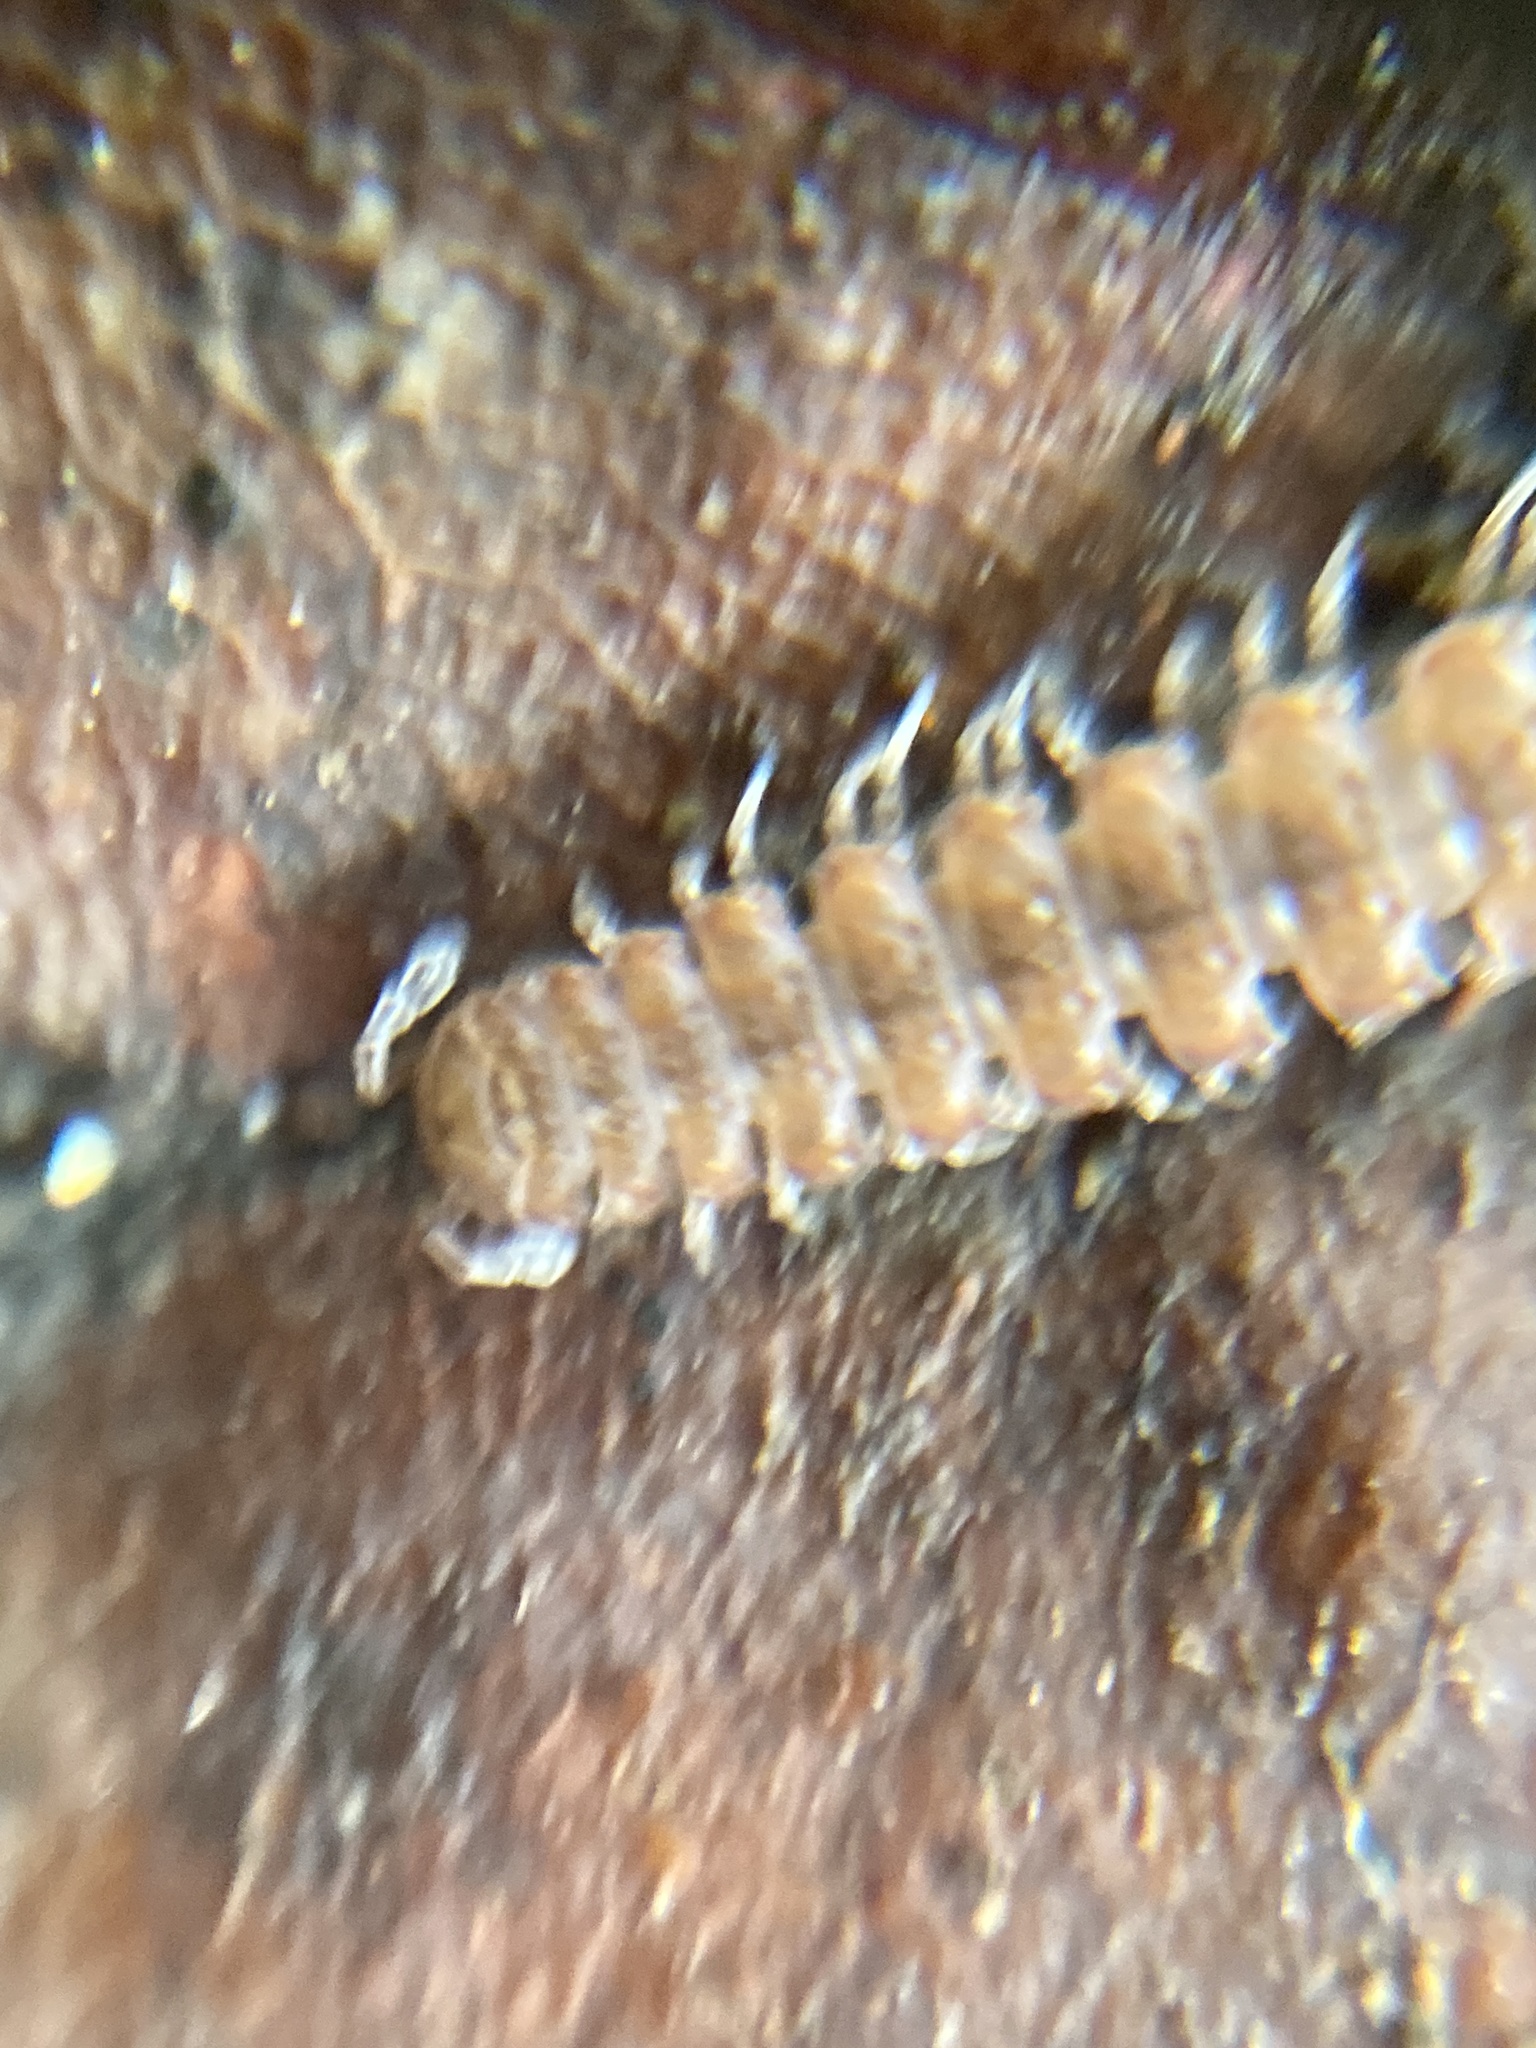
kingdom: Animalia
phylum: Arthropoda
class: Diplopoda
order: Polydesmida
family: Polydesmidae
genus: Polydesmus
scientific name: Polydesmus angustus
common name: Flat millipede
